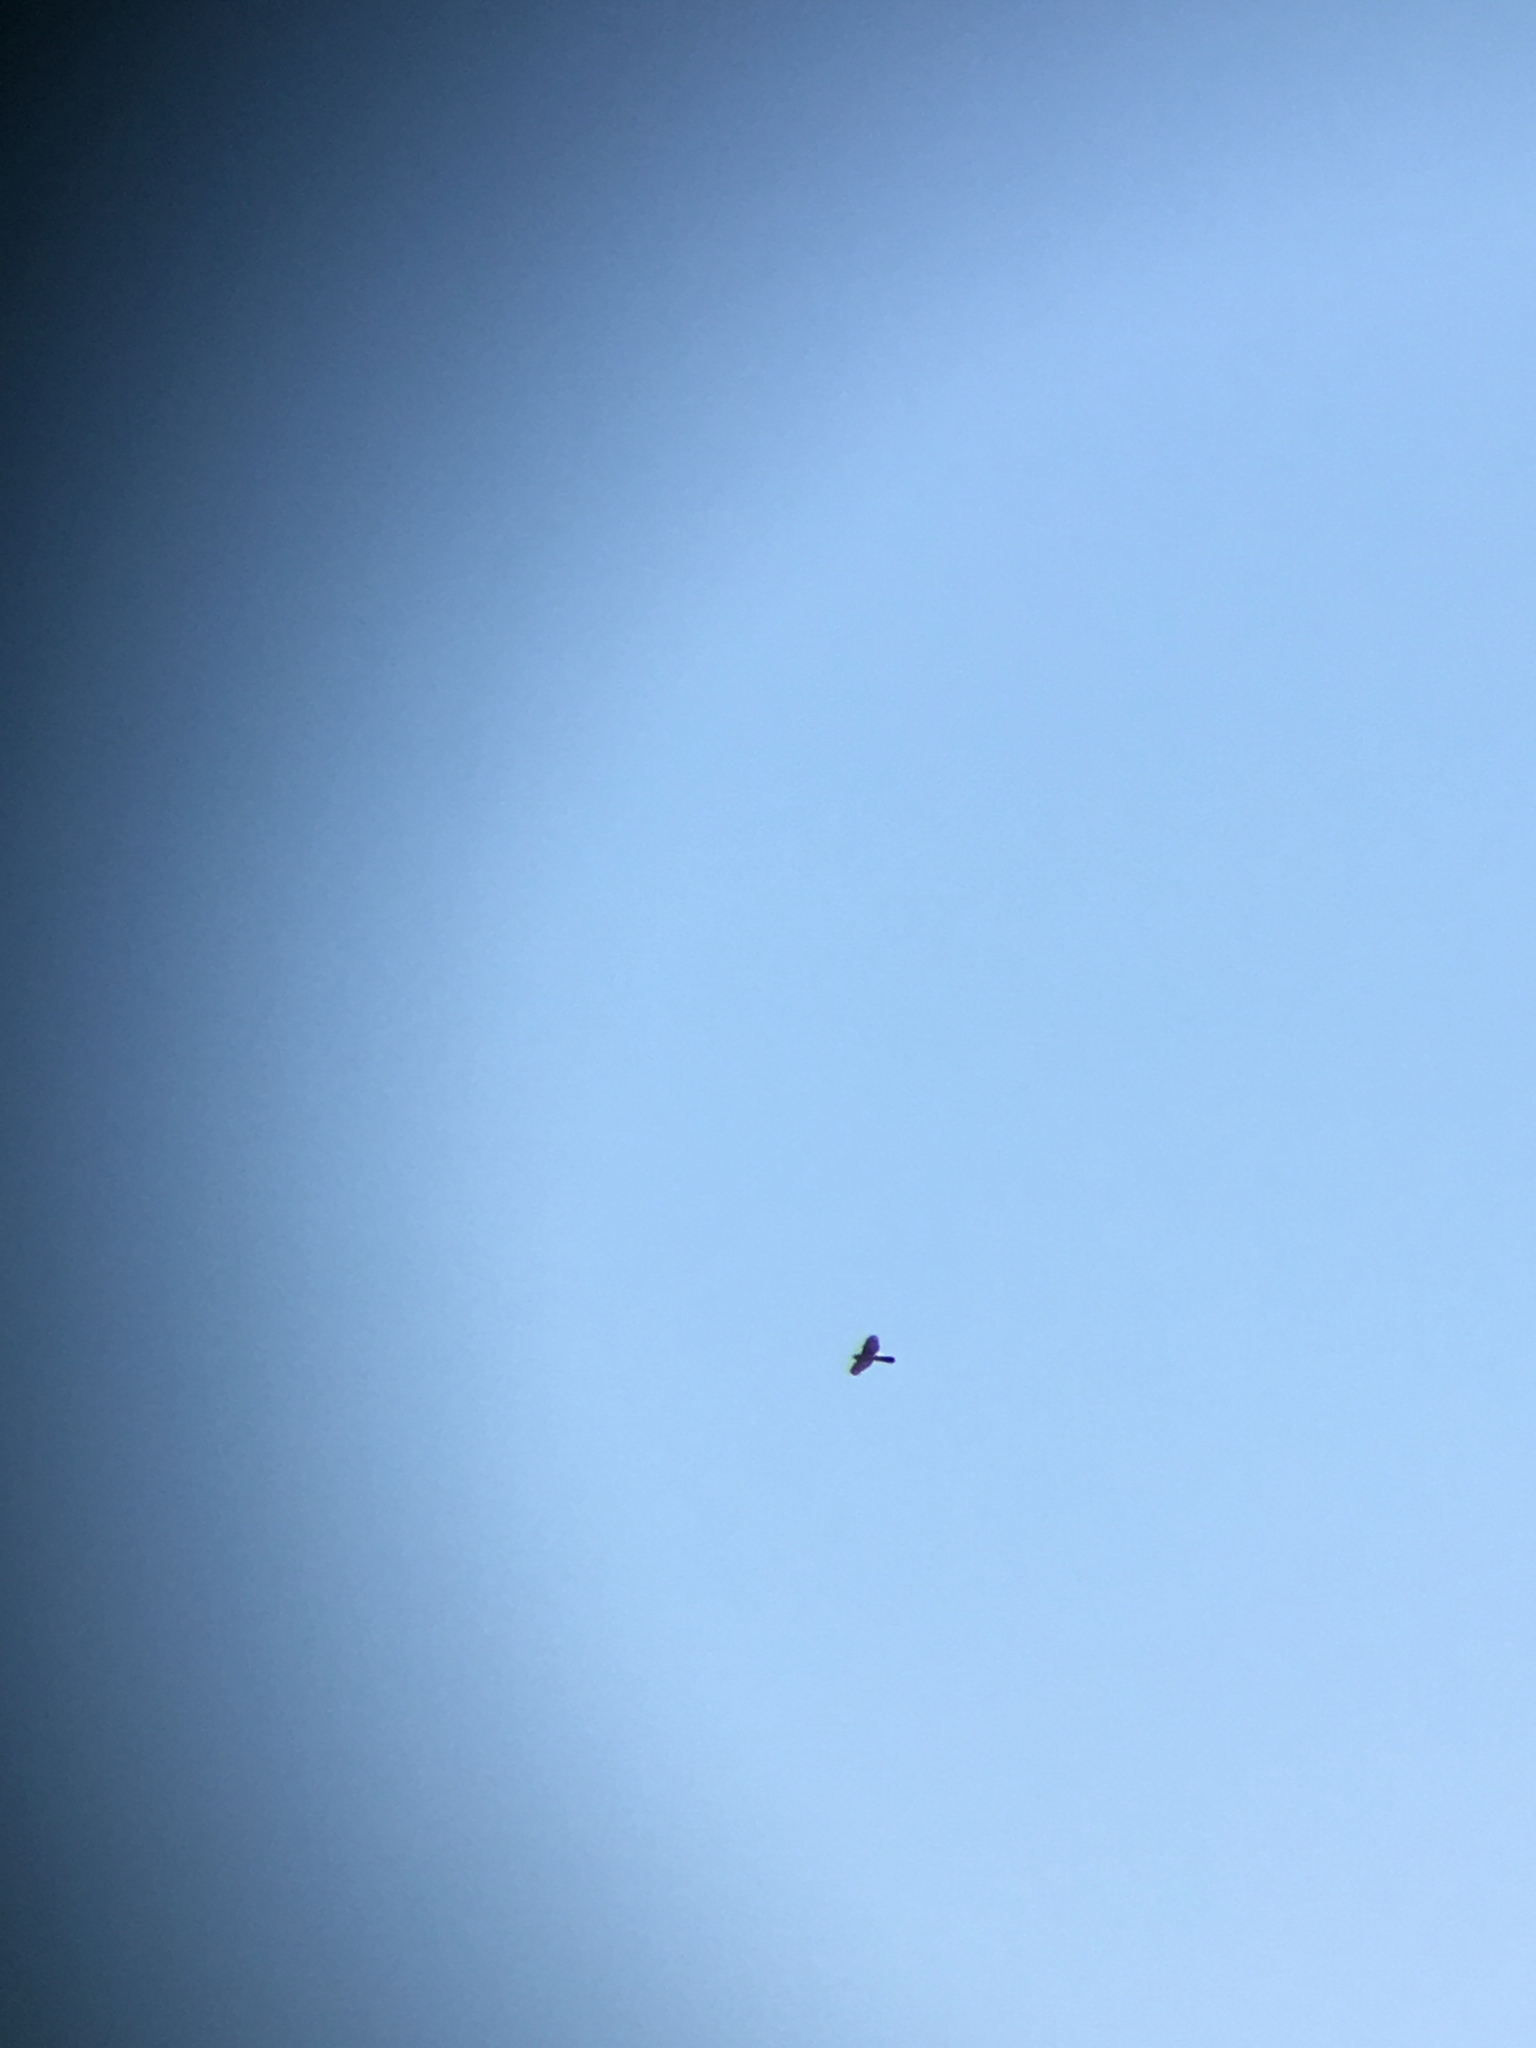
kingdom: Animalia
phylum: Chordata
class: Aves
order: Accipitriformes
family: Accipitridae
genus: Accipiter
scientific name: Accipiter cooperii
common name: Cooper's hawk
